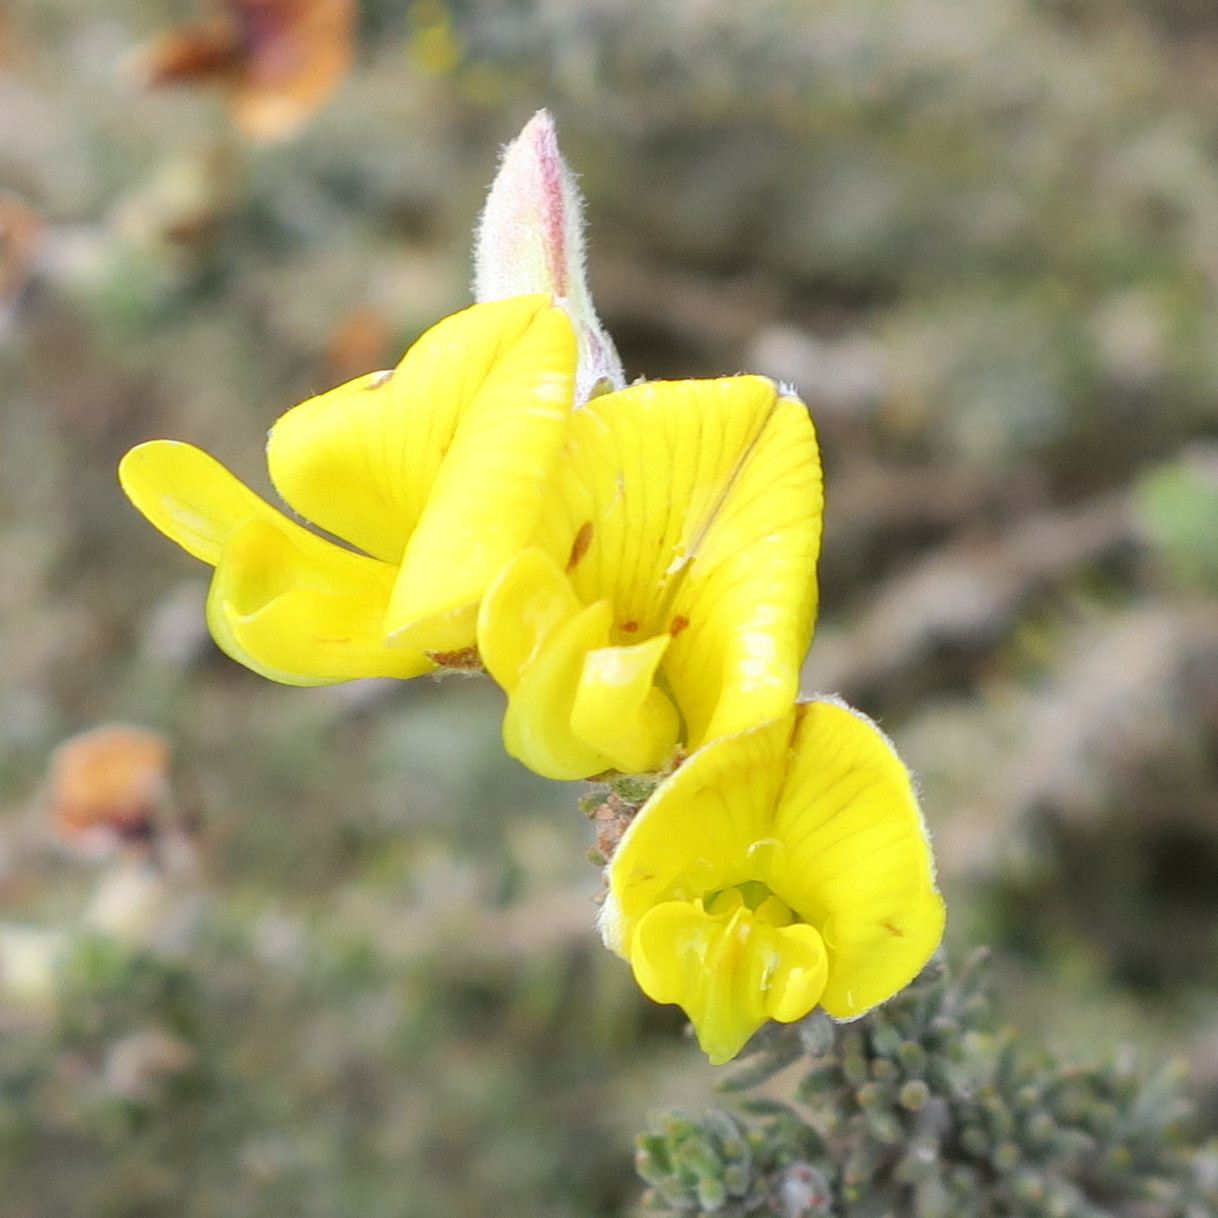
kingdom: Plantae
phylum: Tracheophyta
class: Magnoliopsida
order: Fabales
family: Fabaceae
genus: Aspalathus
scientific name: Aspalathus laricifolia
